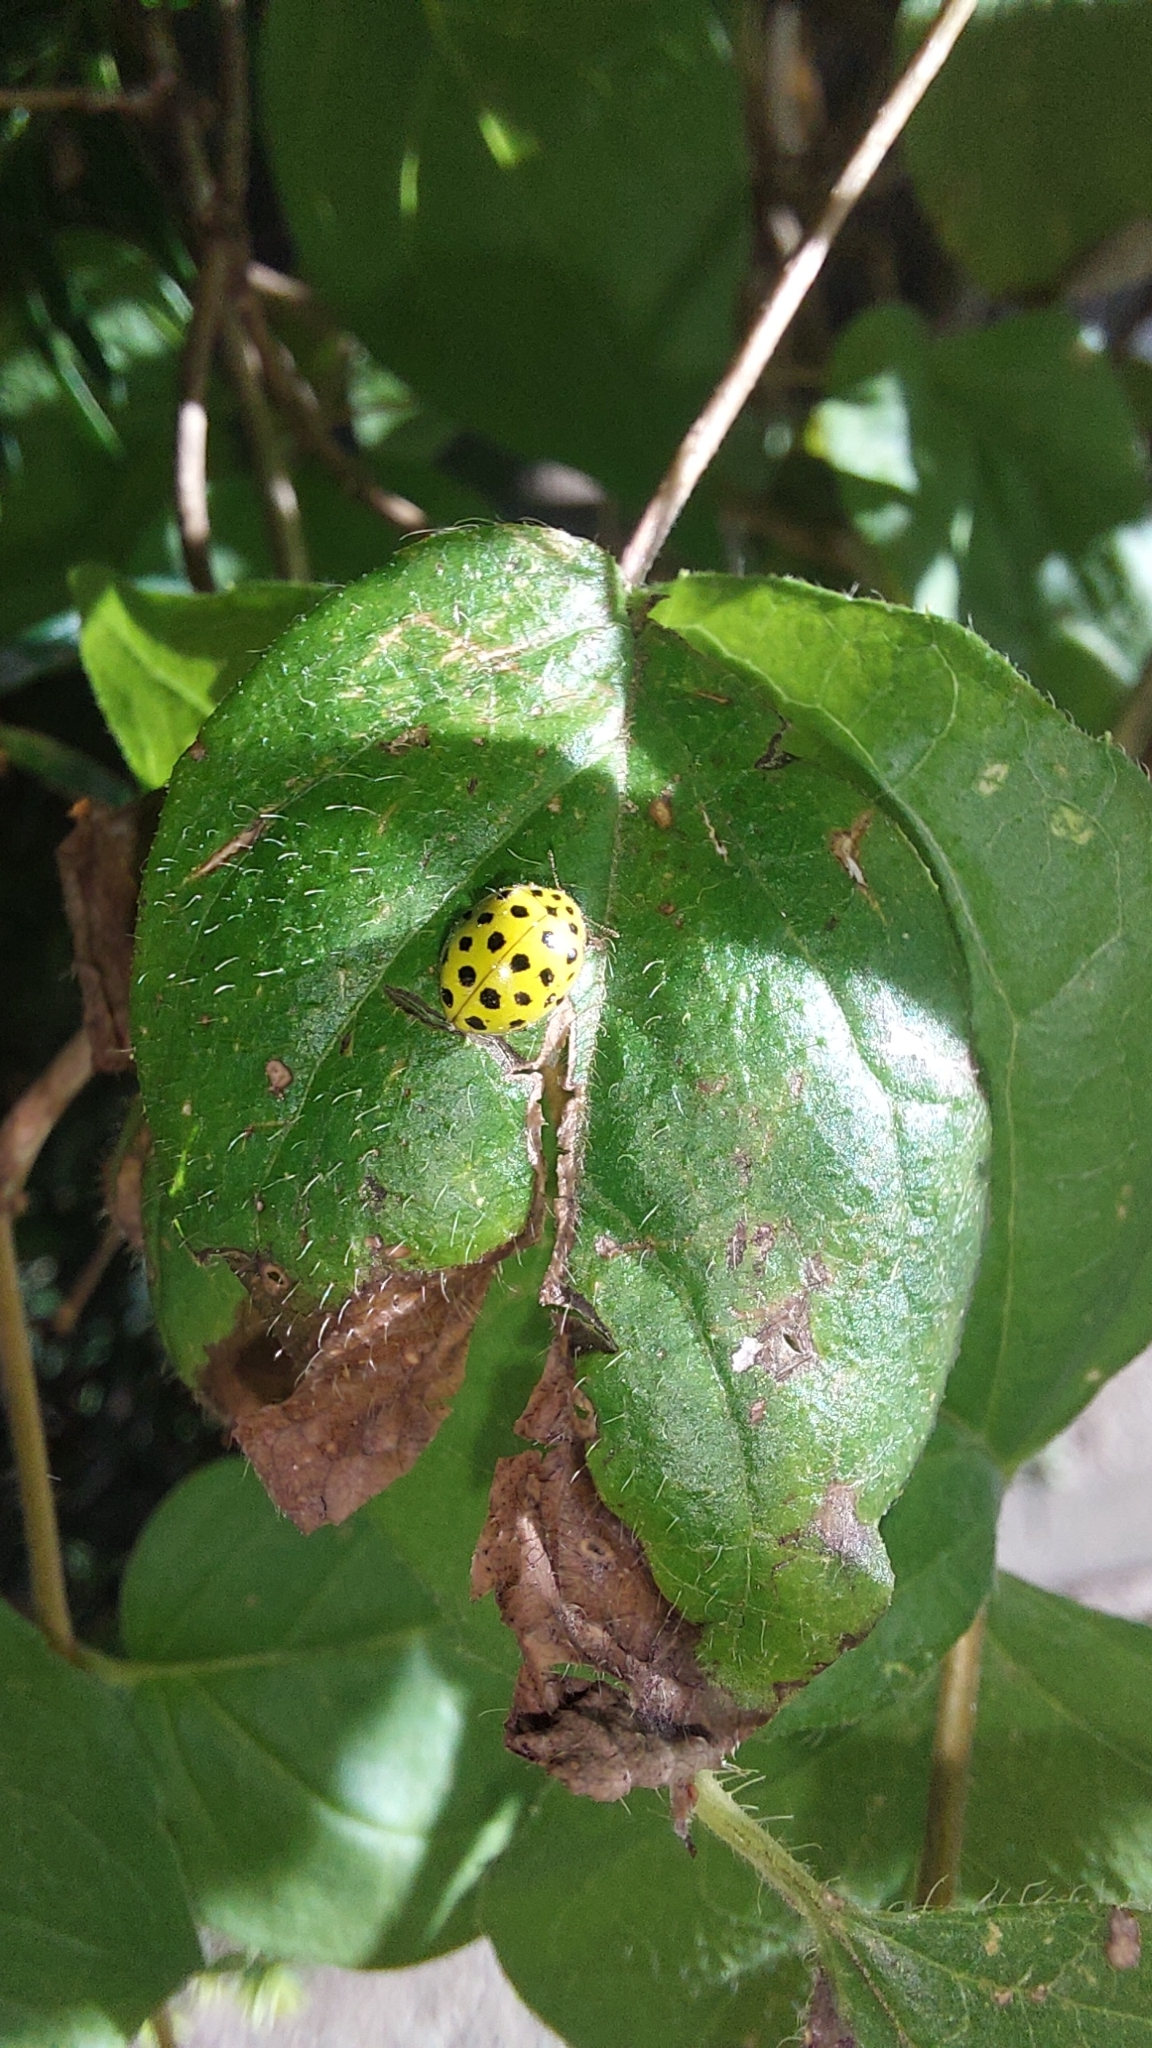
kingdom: Animalia
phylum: Arthropoda
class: Insecta
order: Coleoptera
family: Coccinellidae
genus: Psyllobora
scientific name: Psyllobora vigintiduopunctata
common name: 22-spot ladybird
